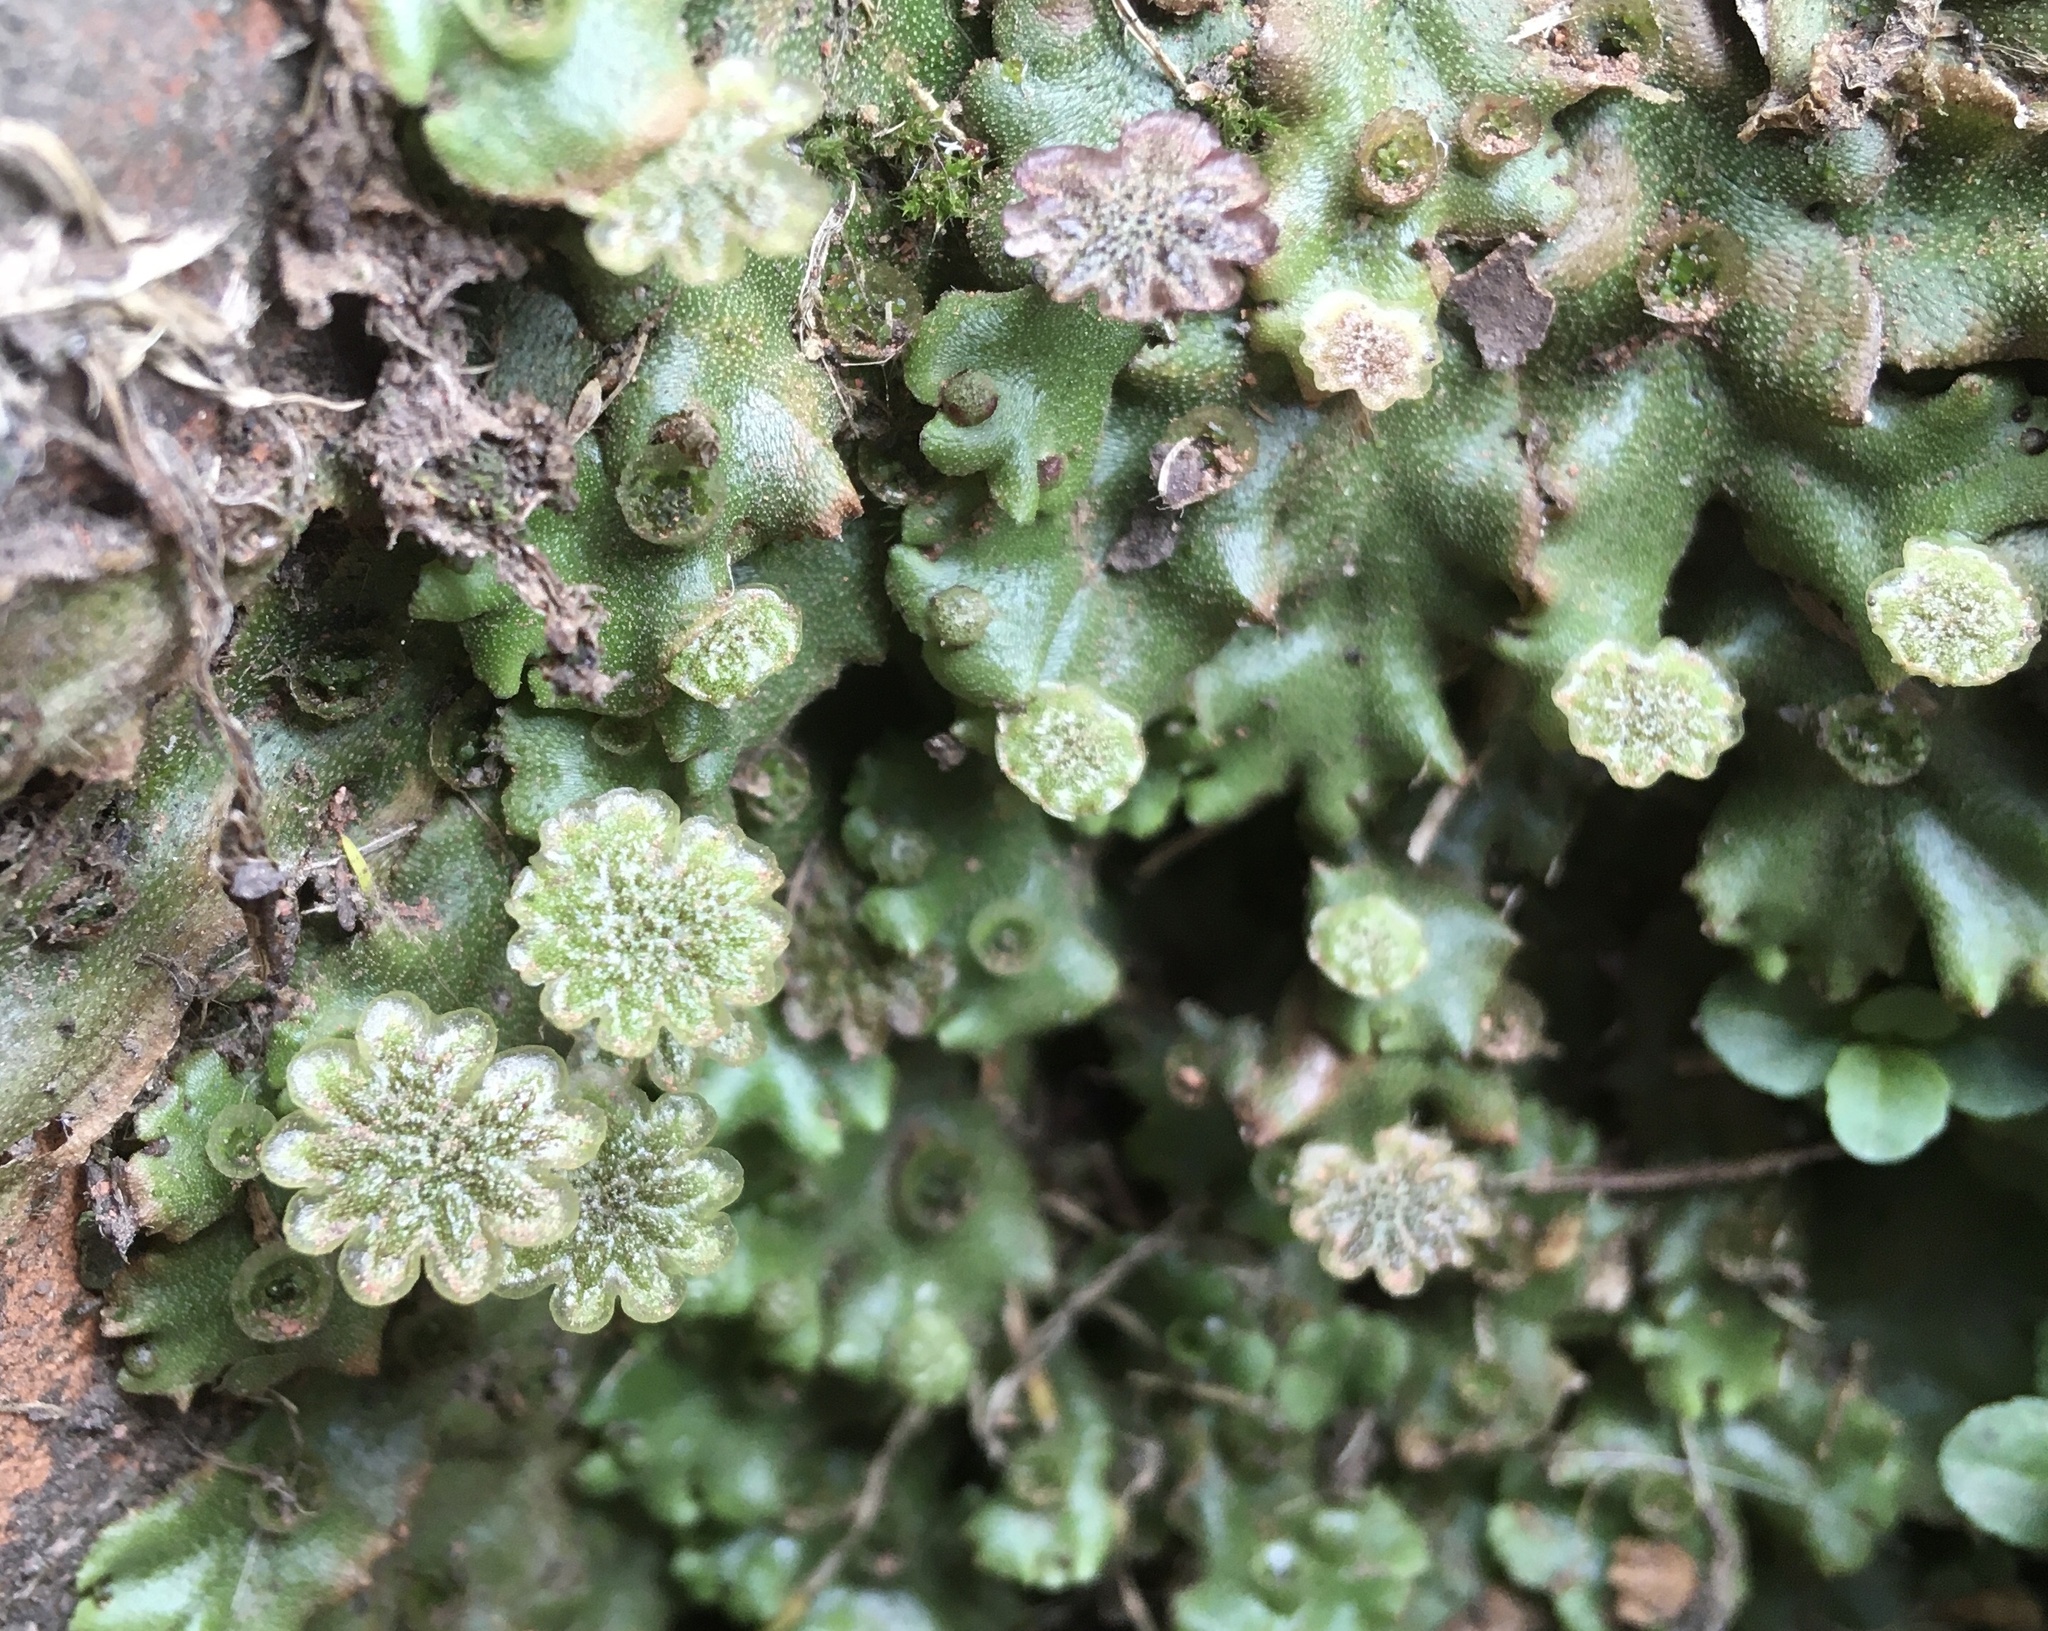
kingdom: Plantae
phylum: Marchantiophyta
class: Marchantiopsida
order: Marchantiales
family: Marchantiaceae
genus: Marchantia
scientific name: Marchantia polymorpha
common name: Common liverwort
